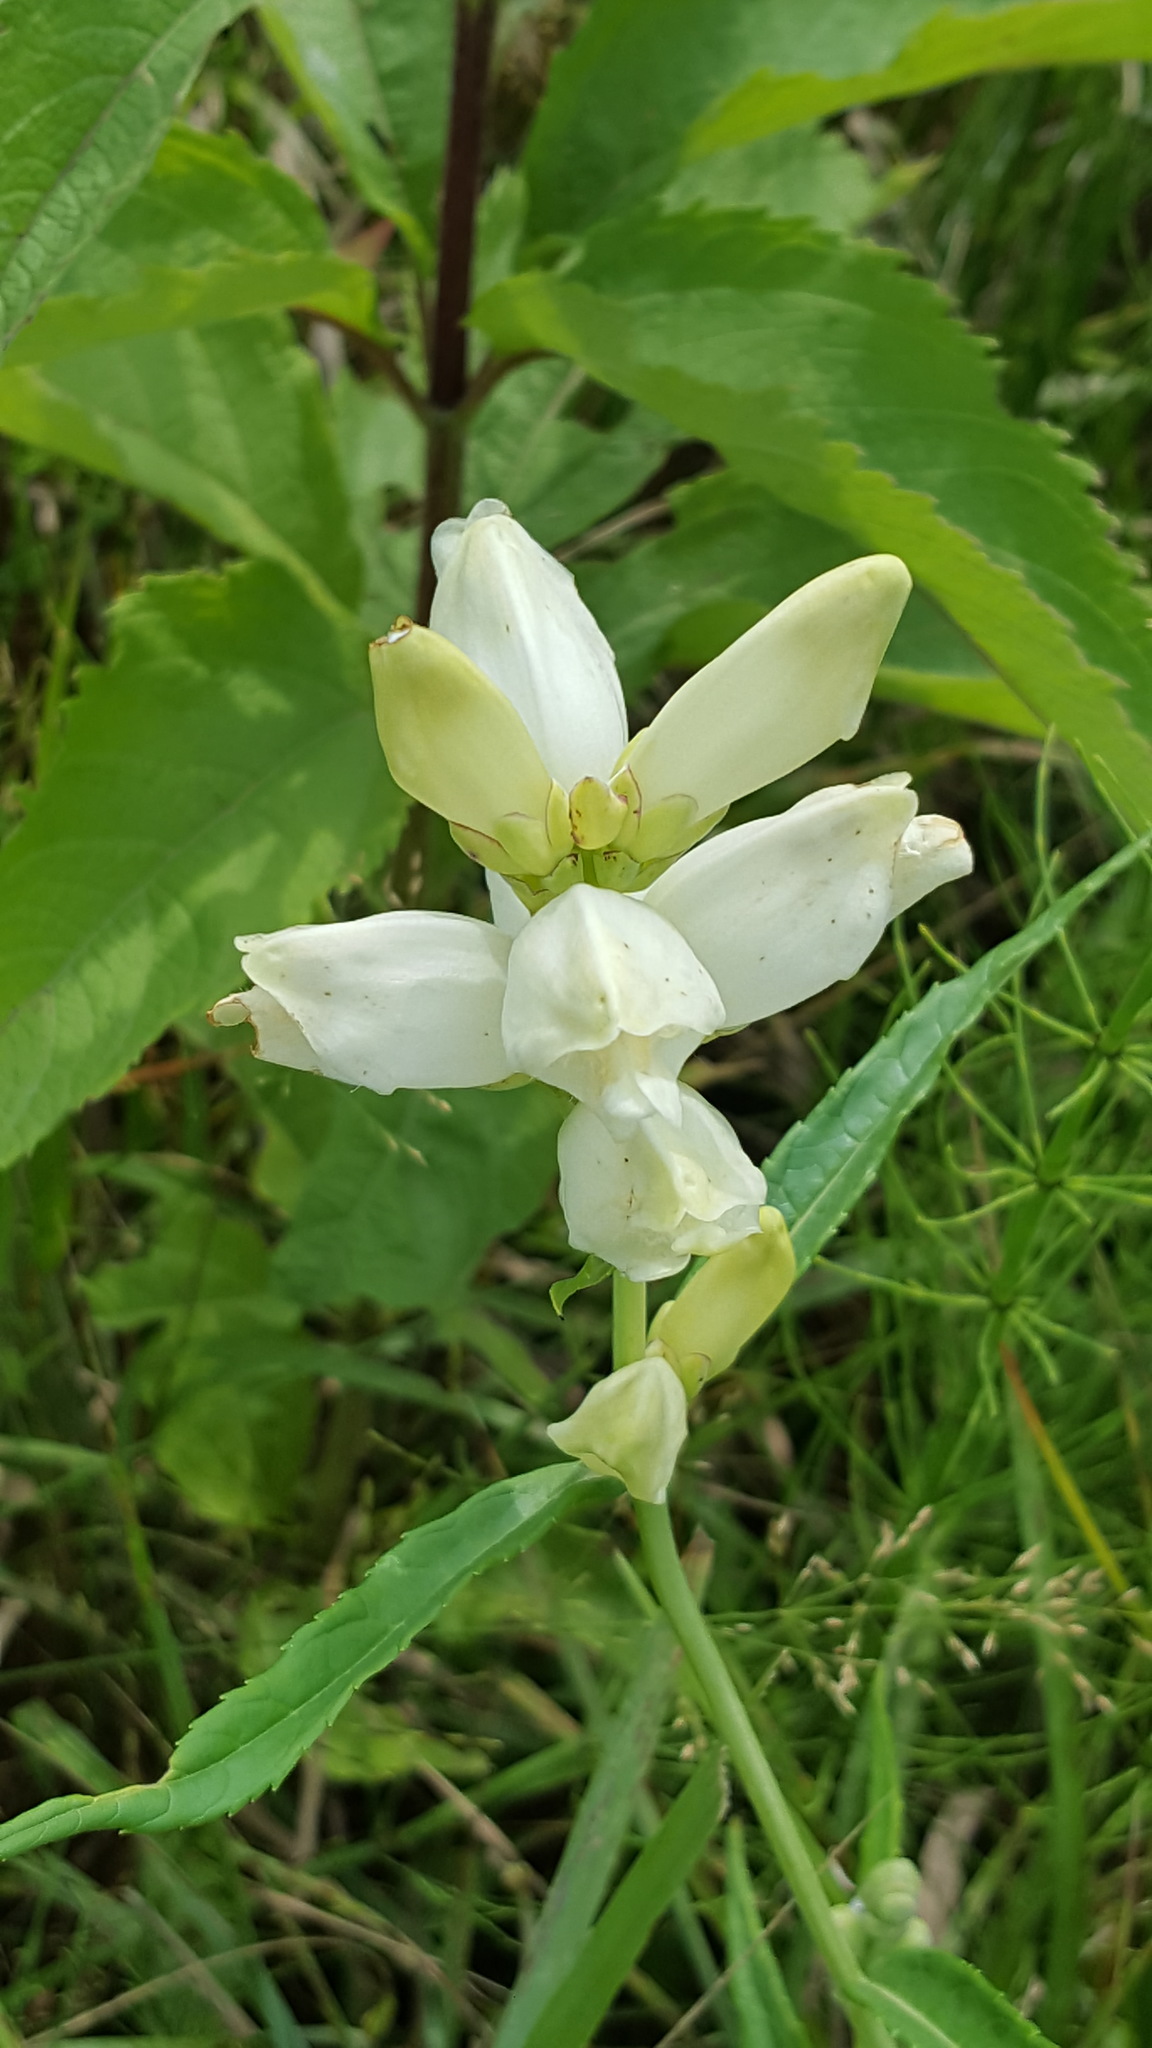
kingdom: Plantae
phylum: Tracheophyta
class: Magnoliopsida
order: Lamiales
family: Plantaginaceae
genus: Chelone
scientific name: Chelone glabra
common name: Snakehead
